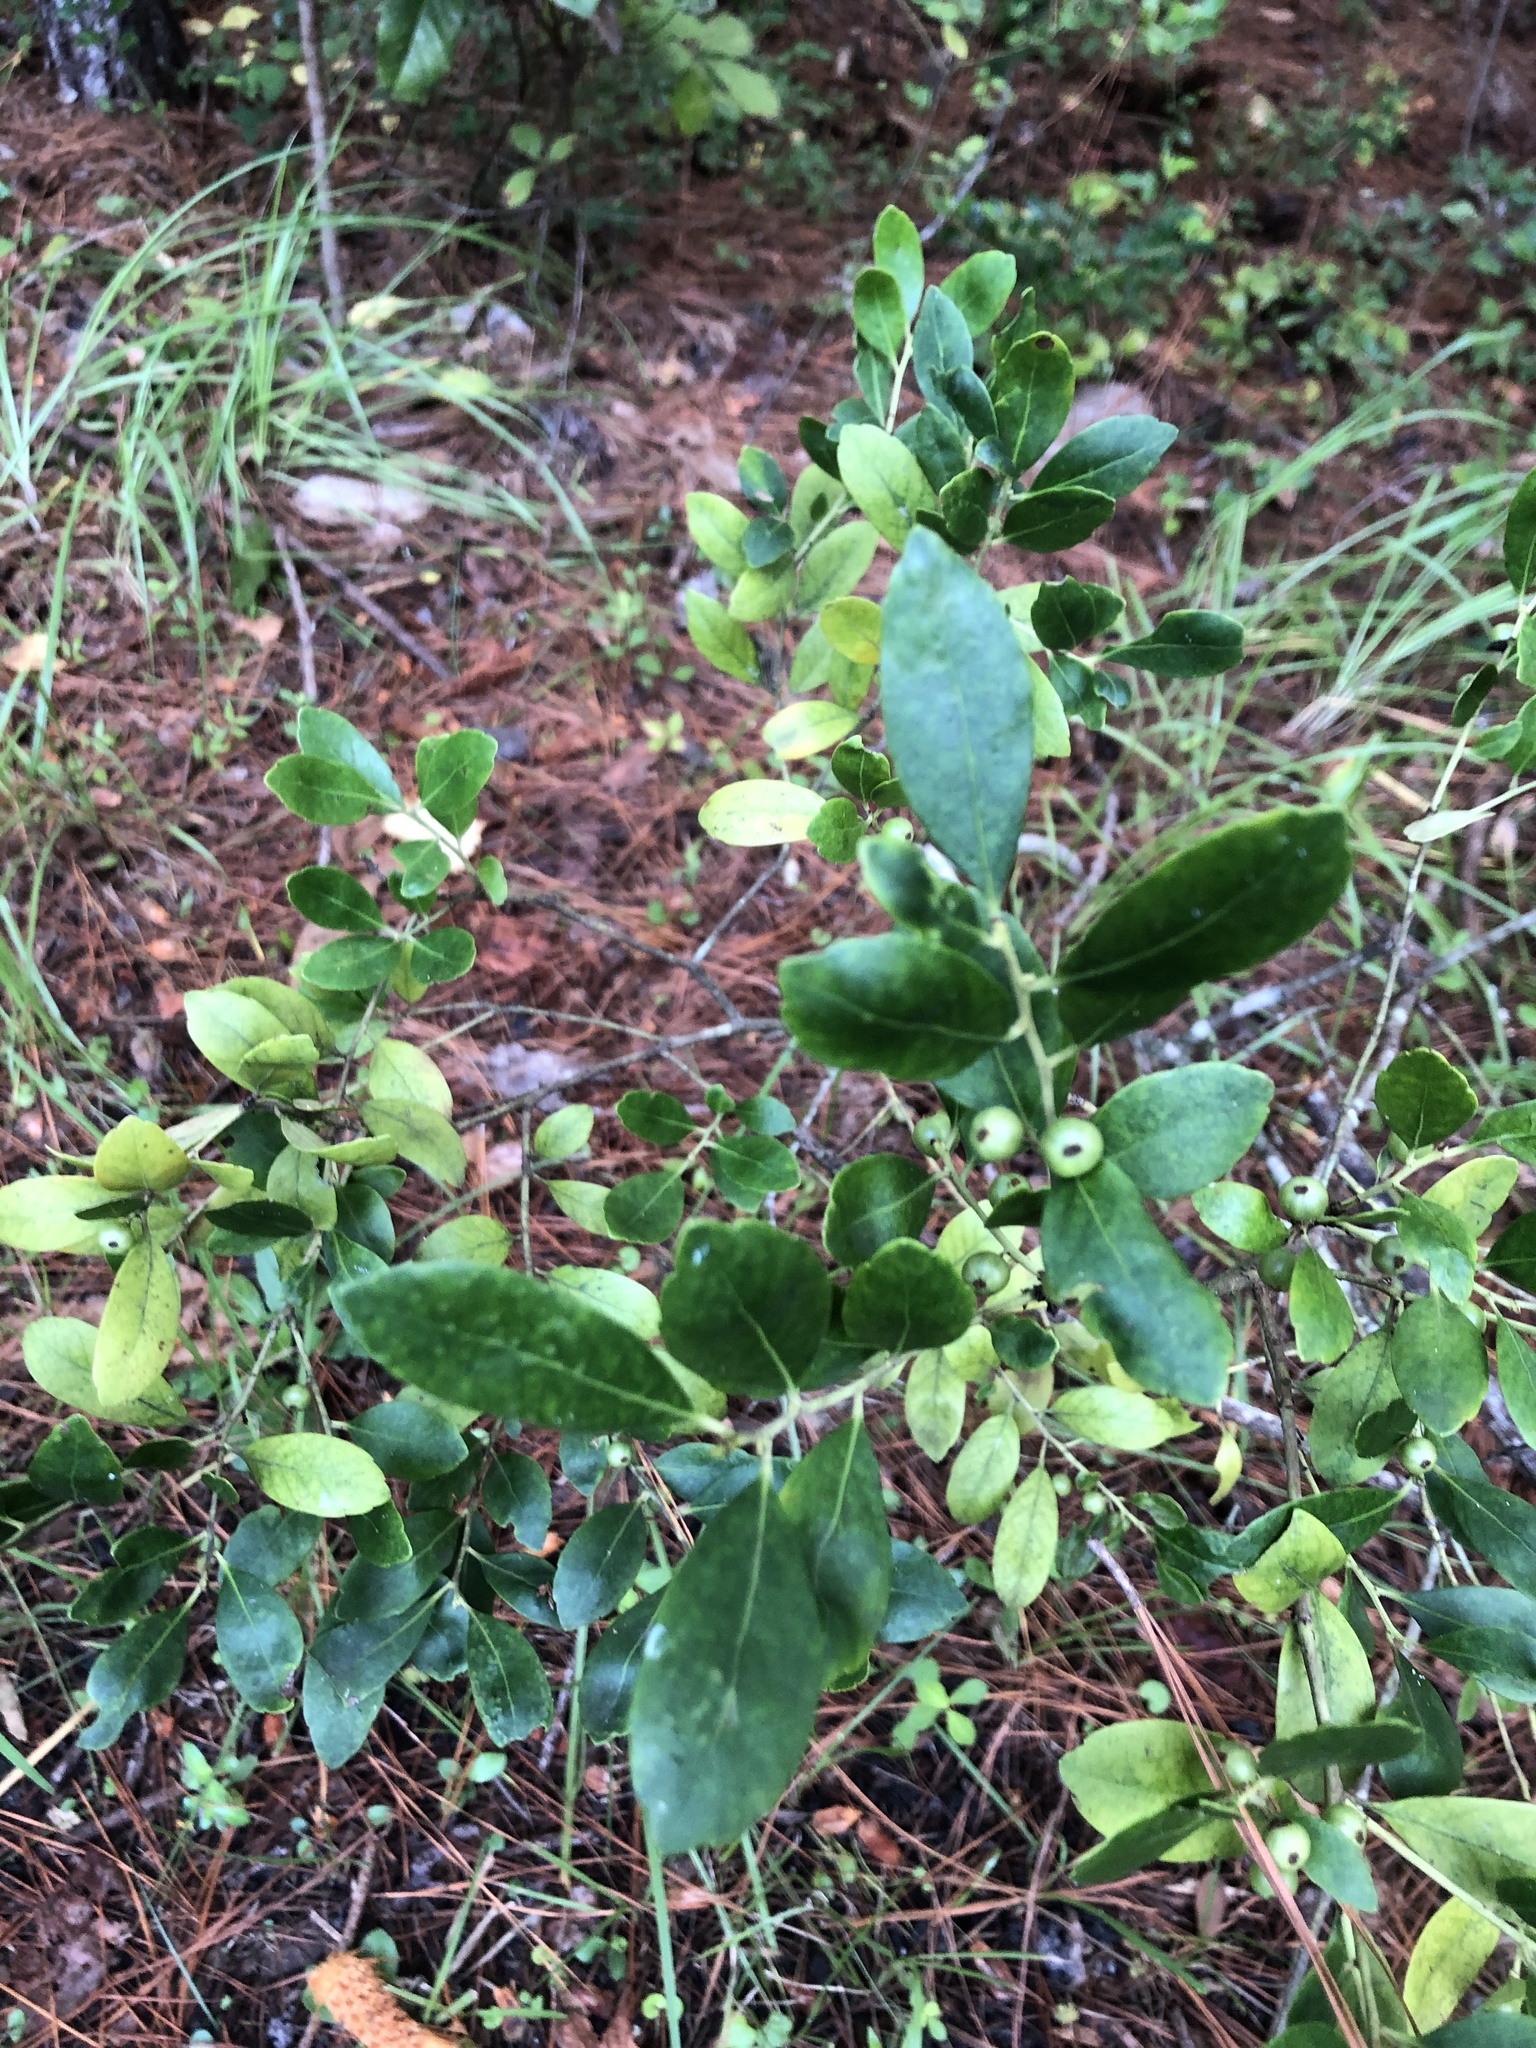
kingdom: Plantae
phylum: Tracheophyta
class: Magnoliopsida
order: Aquifoliales
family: Aquifoliaceae
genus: Ilex
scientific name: Ilex glabra
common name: Bitter gallberry
